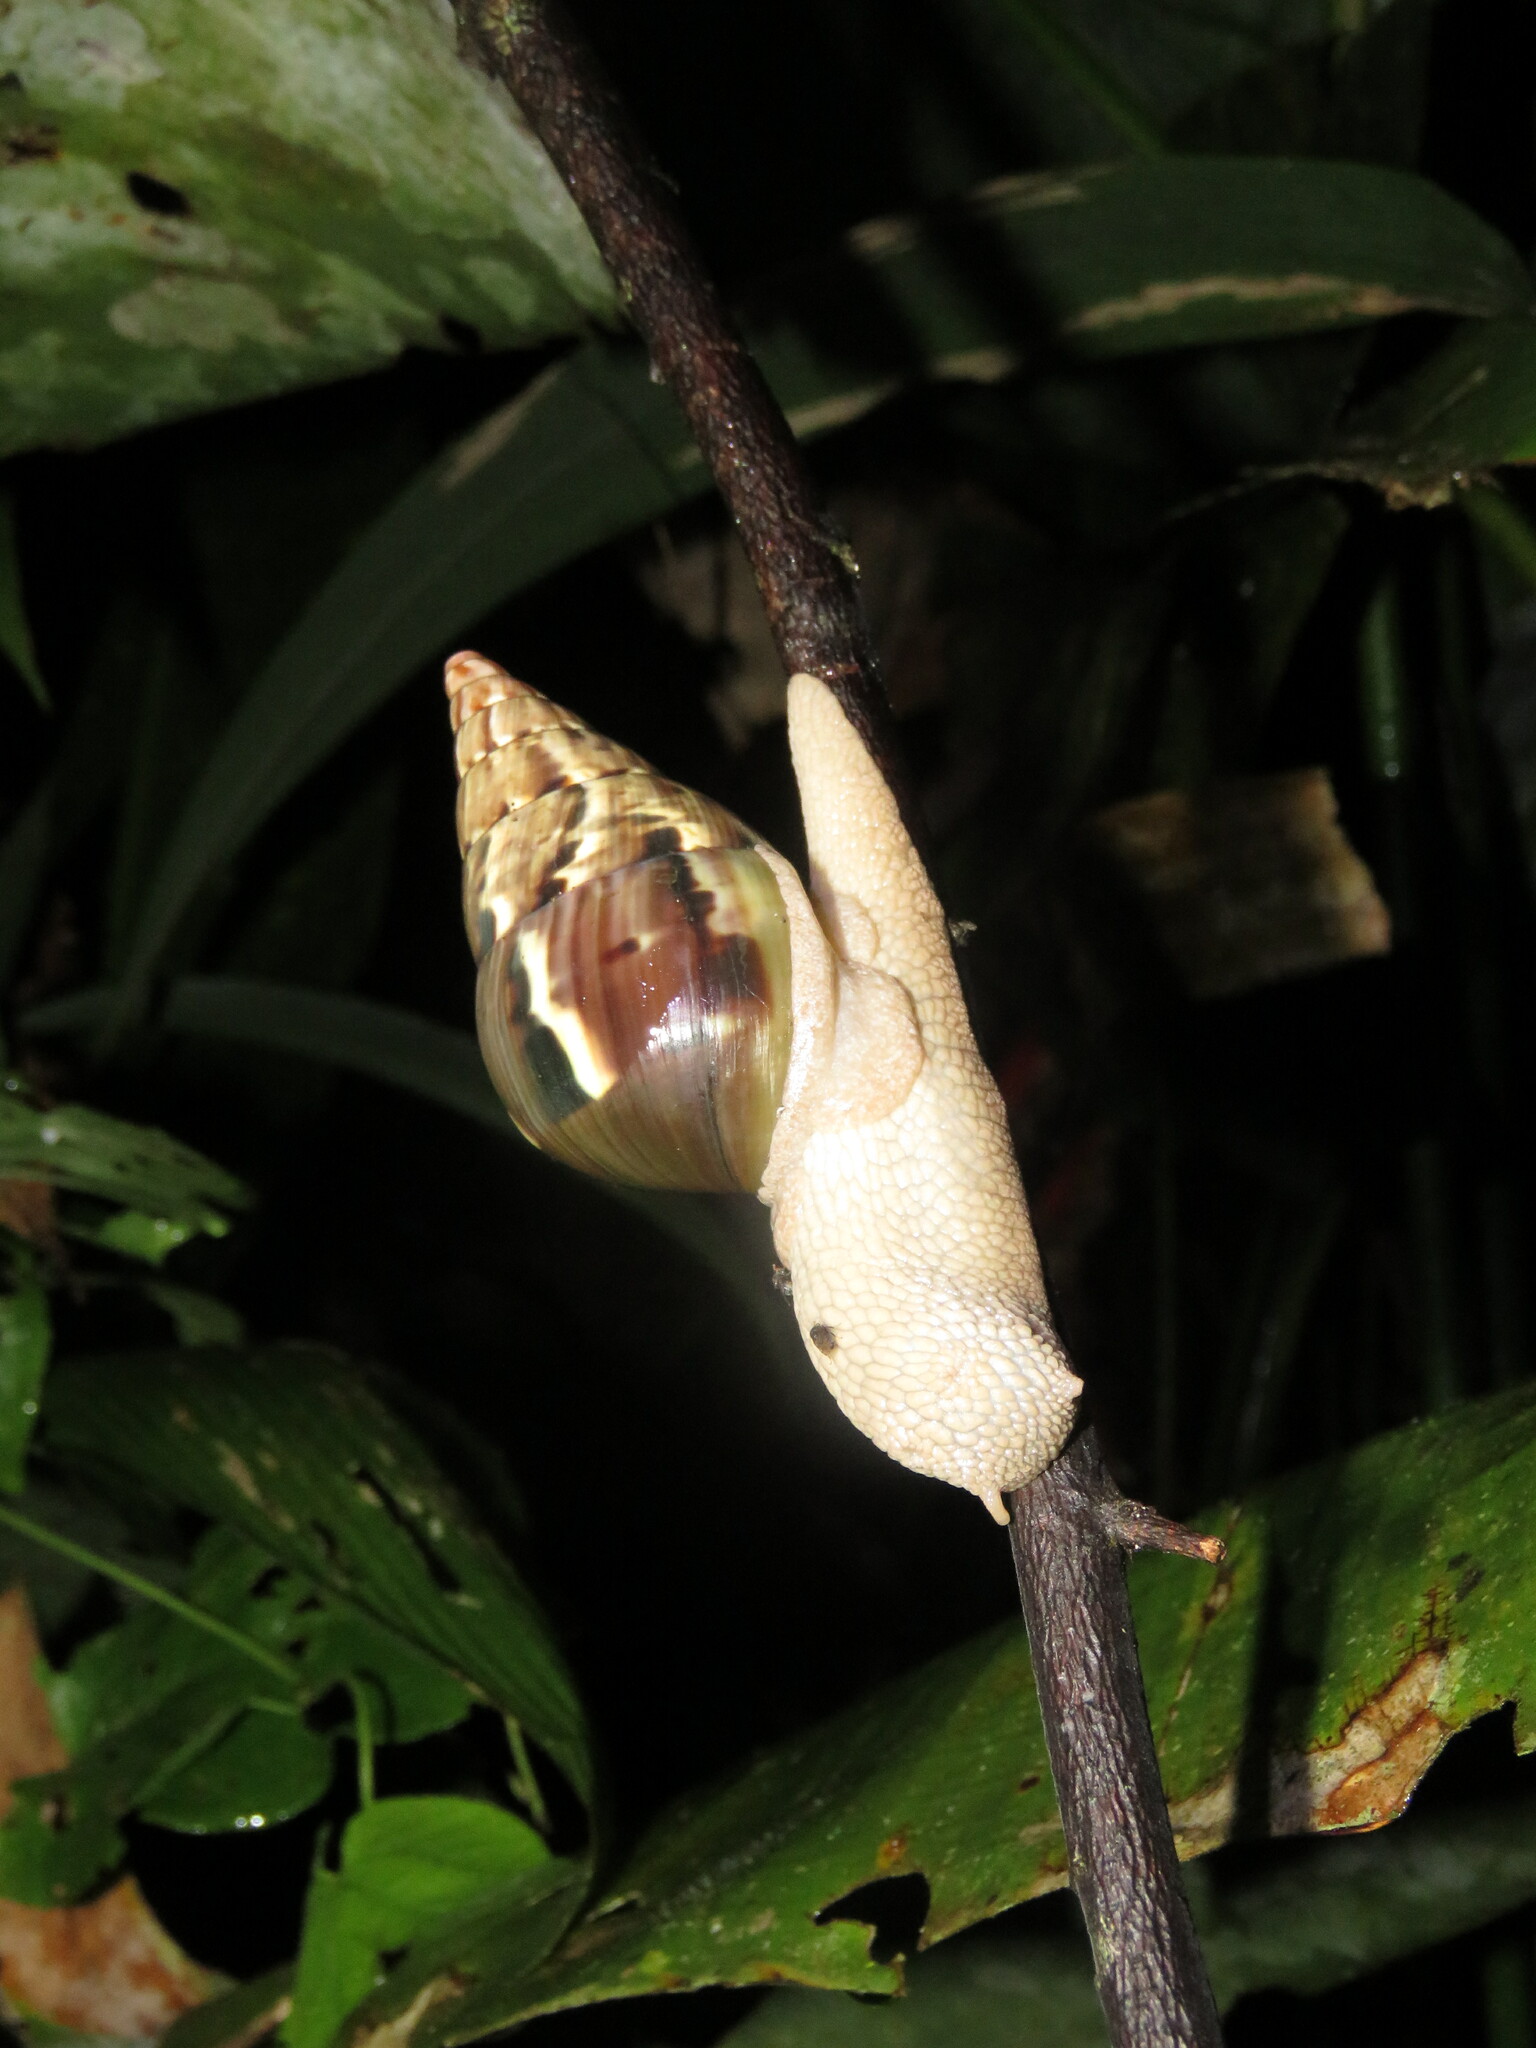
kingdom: Animalia
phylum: Mollusca
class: Gastropoda
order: Stylommatophora
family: Orthalicidae
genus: Corona
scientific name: Corona incisa
